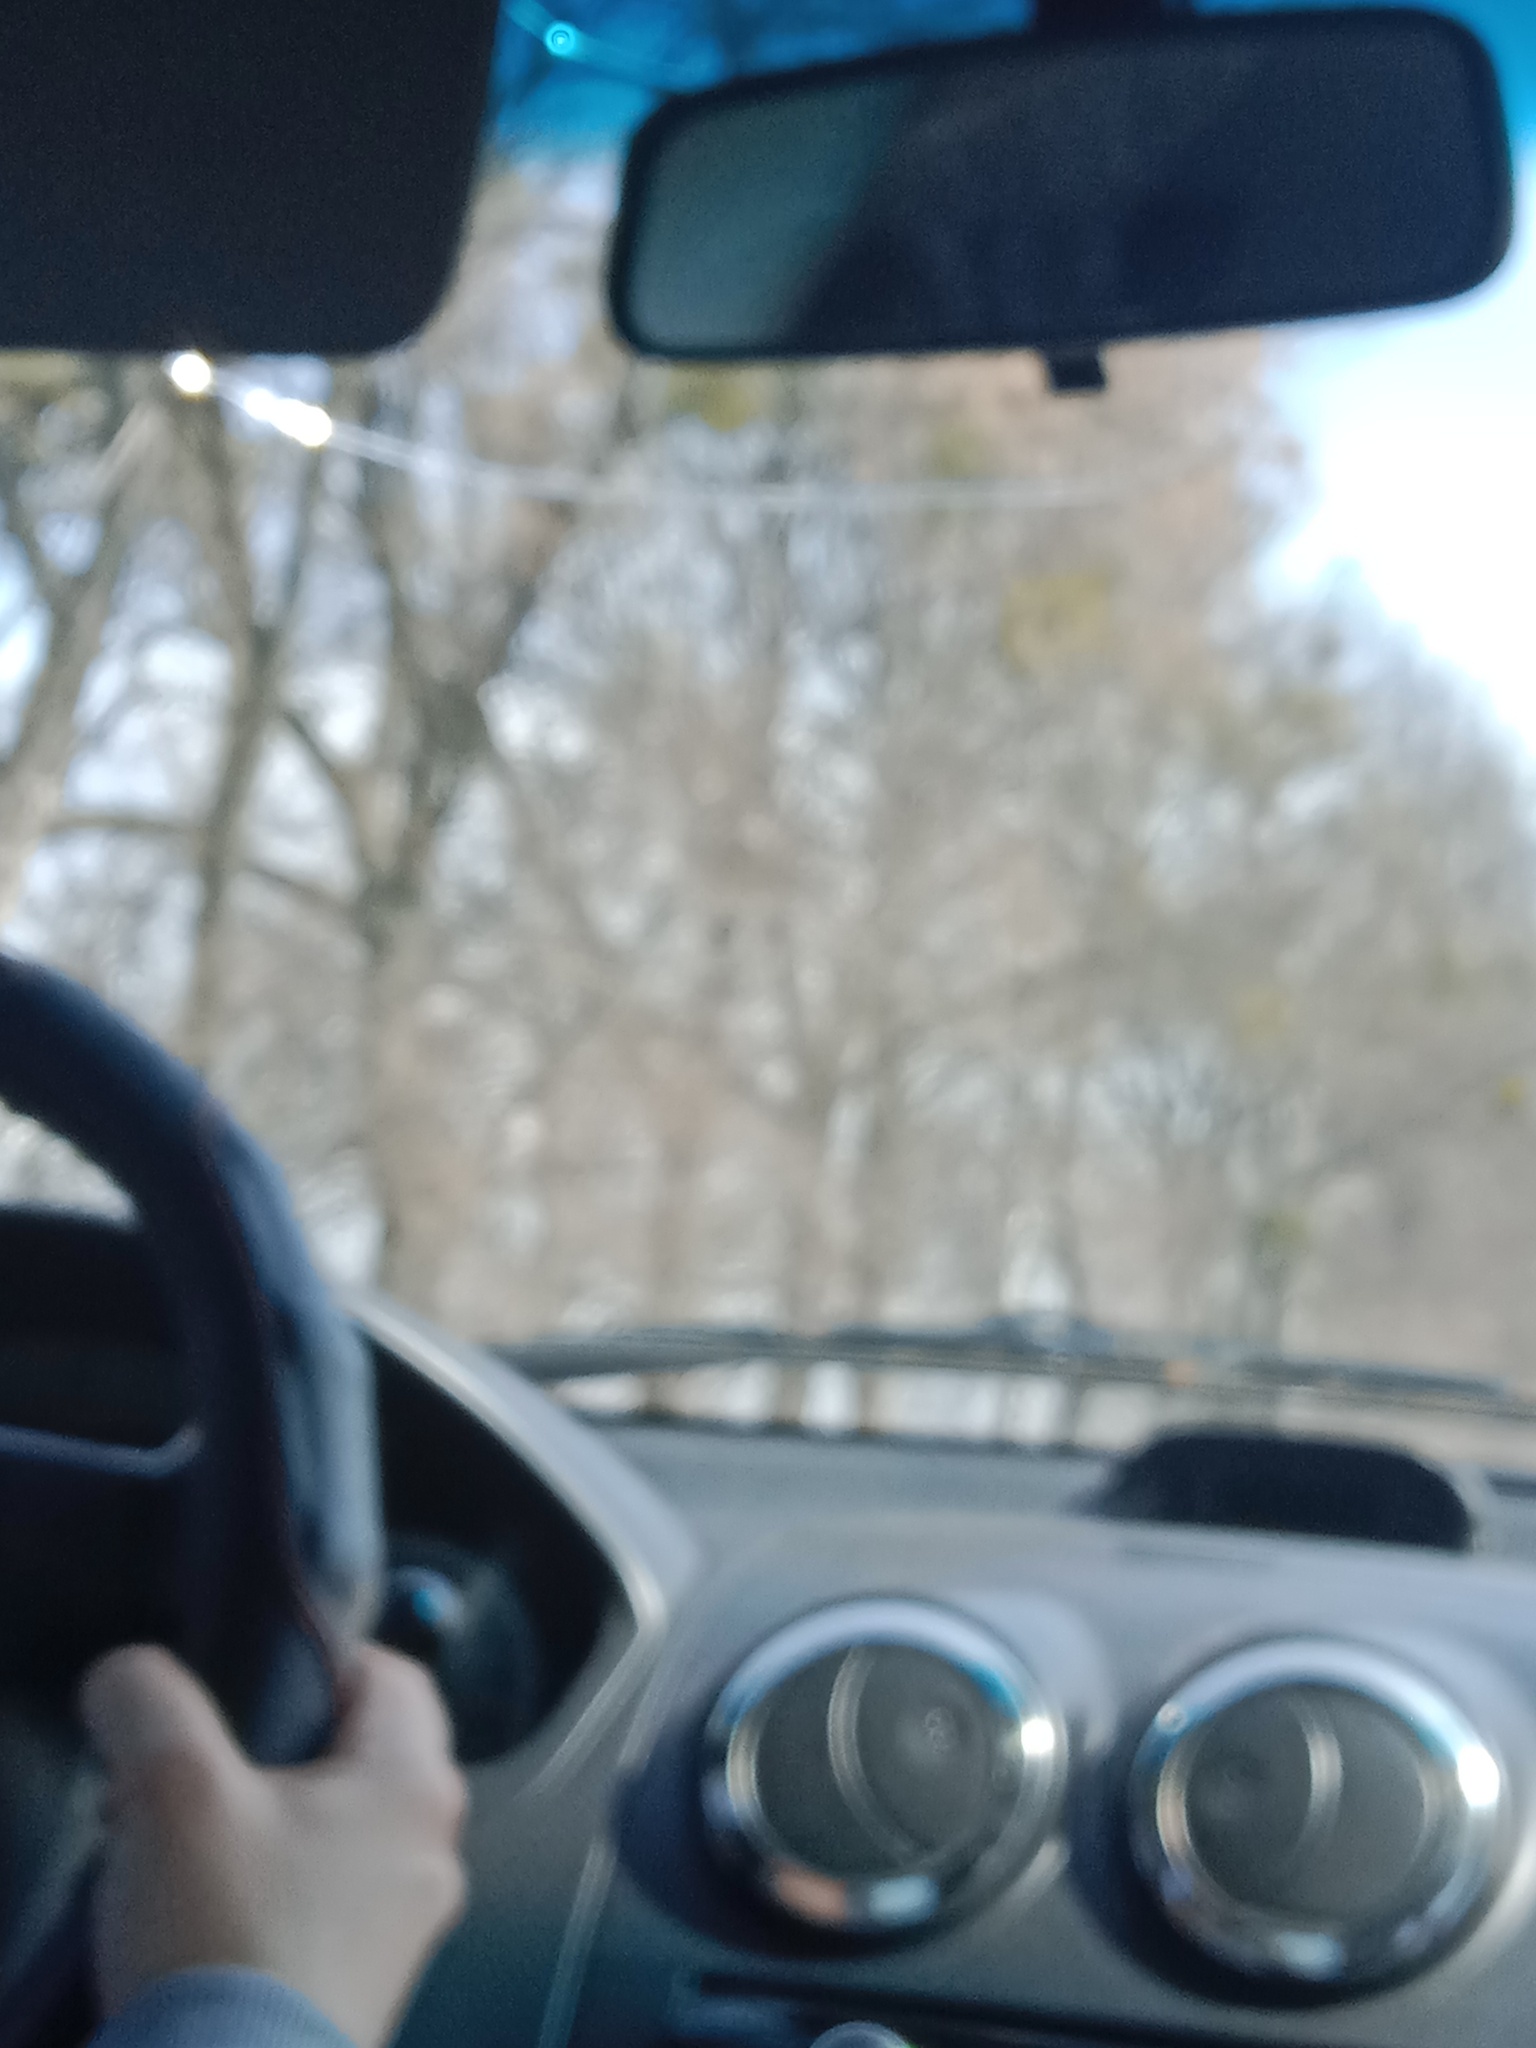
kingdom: Plantae
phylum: Tracheophyta
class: Magnoliopsida
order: Santalales
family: Viscaceae
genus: Viscum
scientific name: Viscum album
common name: Mistletoe
